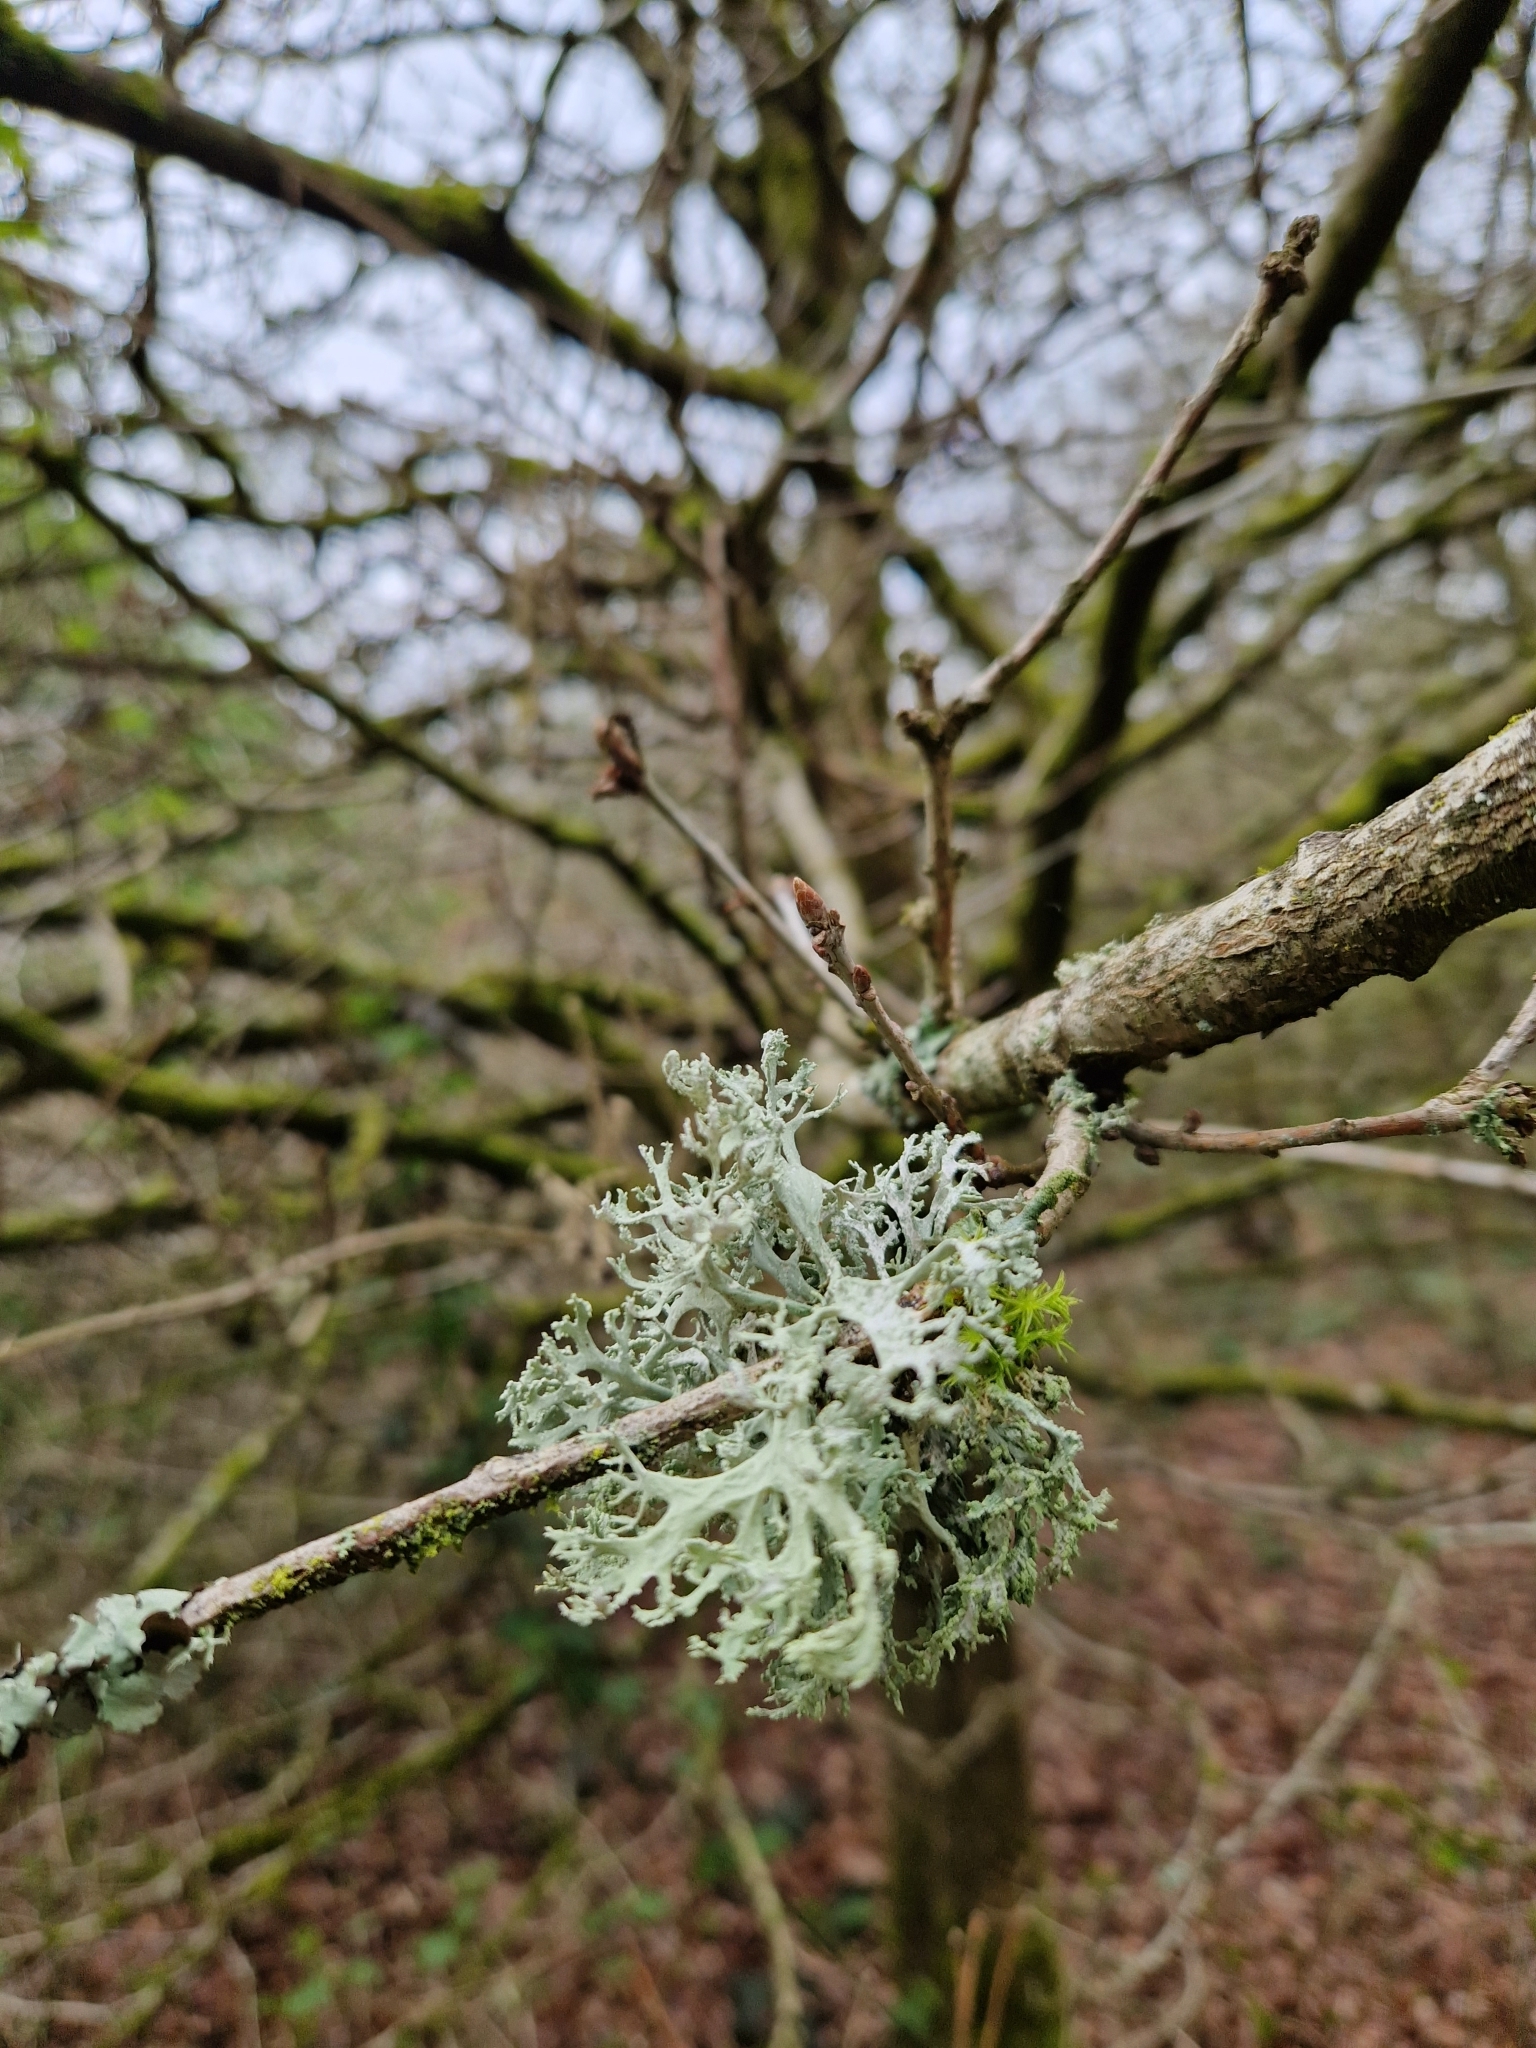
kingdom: Fungi
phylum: Ascomycota
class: Lecanoromycetes
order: Lecanorales
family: Parmeliaceae
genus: Evernia
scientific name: Evernia prunastri
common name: Oak moss
